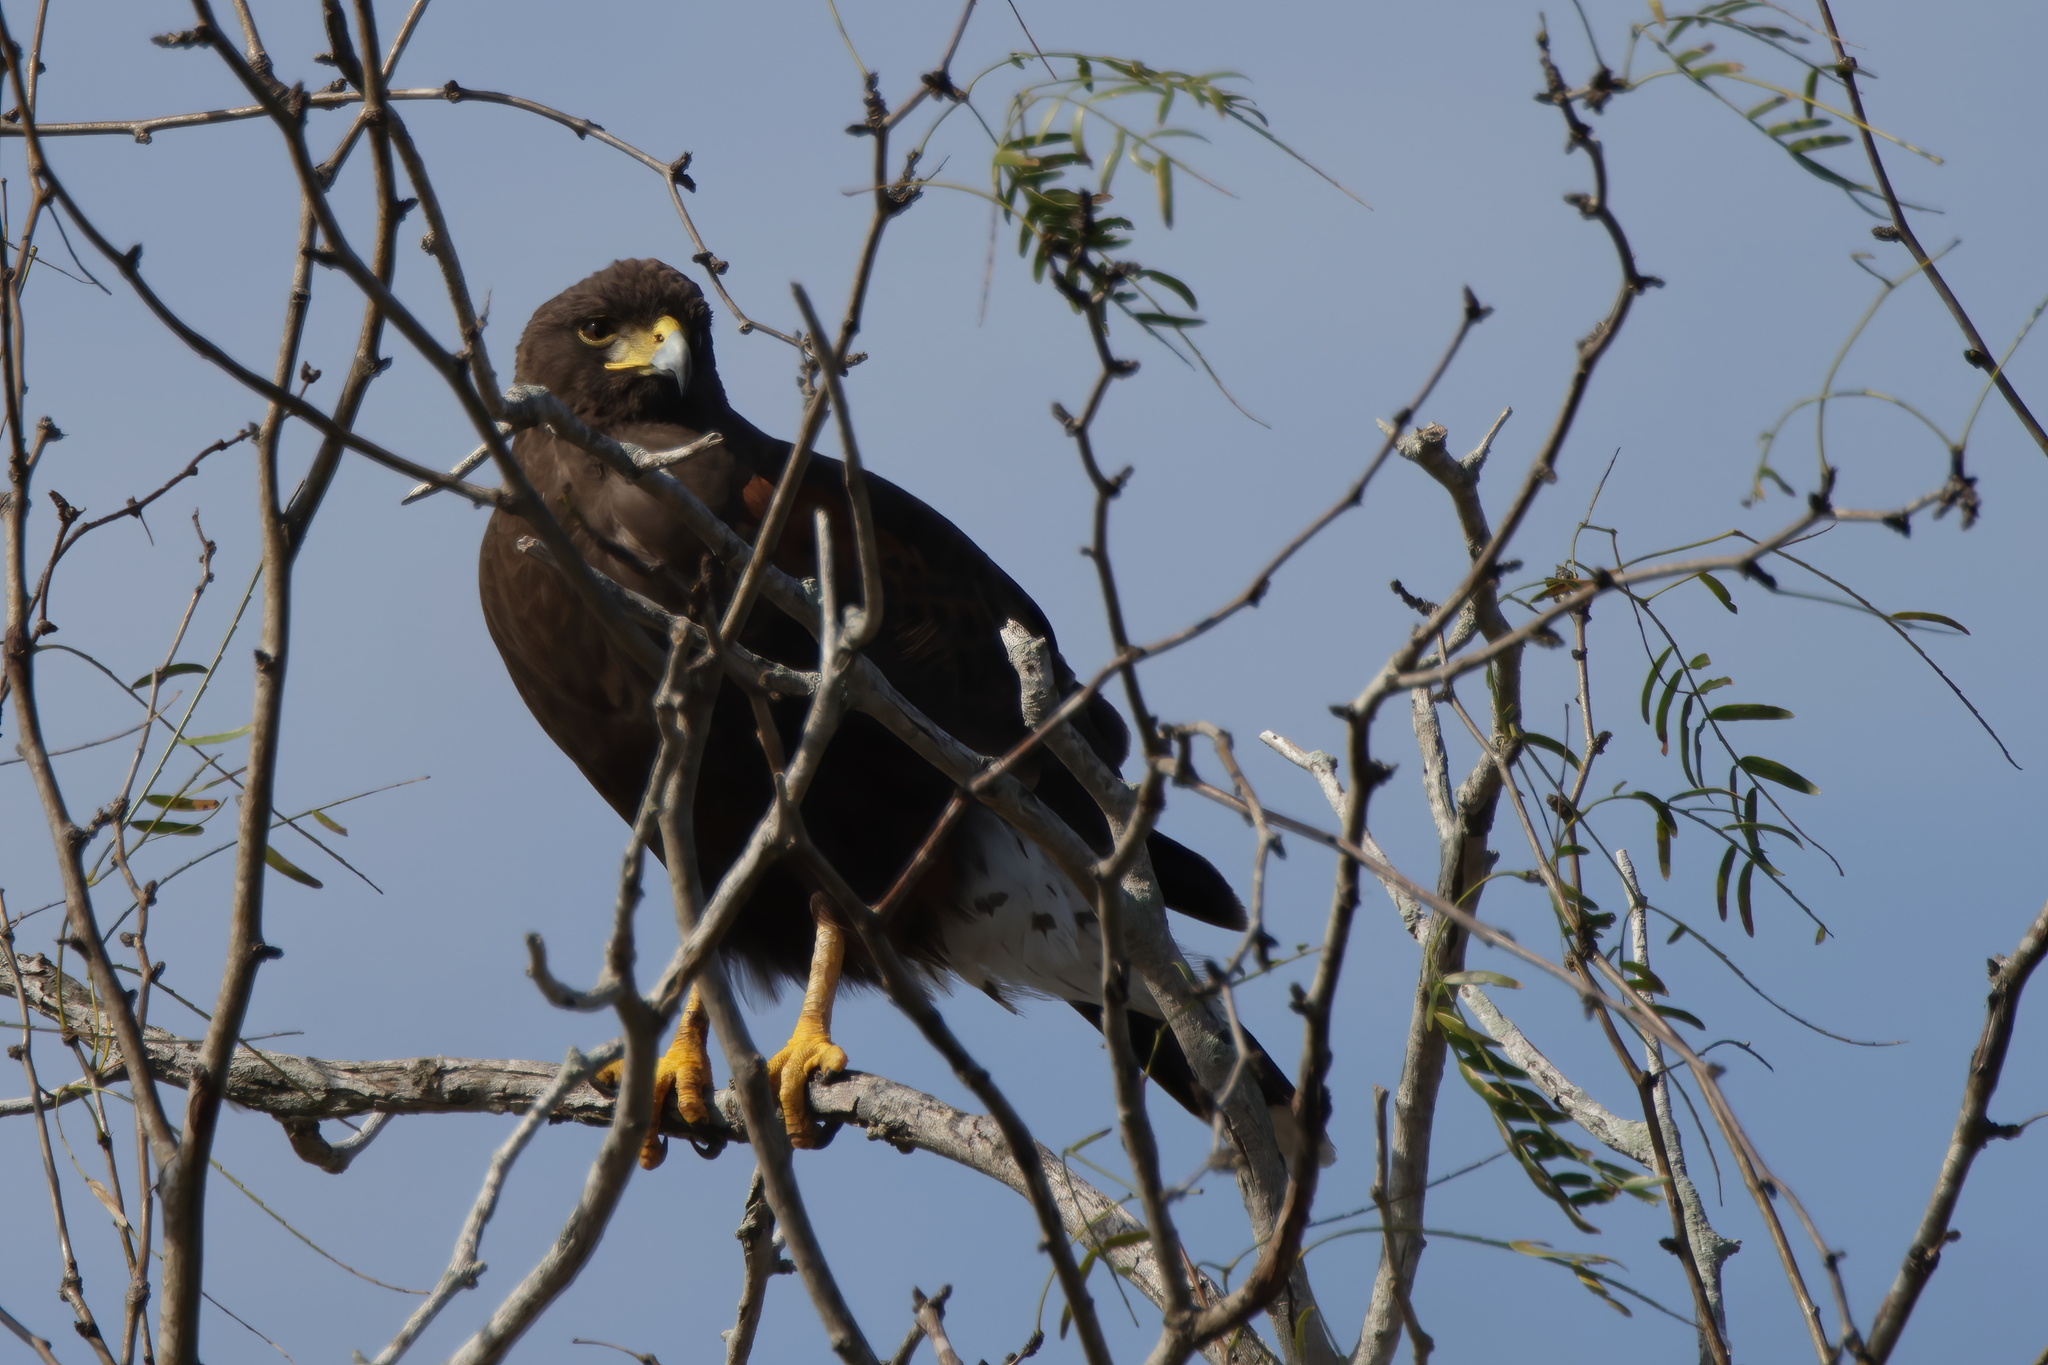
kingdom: Animalia
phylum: Chordata
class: Aves
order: Accipitriformes
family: Accipitridae
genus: Parabuteo
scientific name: Parabuteo unicinctus
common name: Harris's hawk
